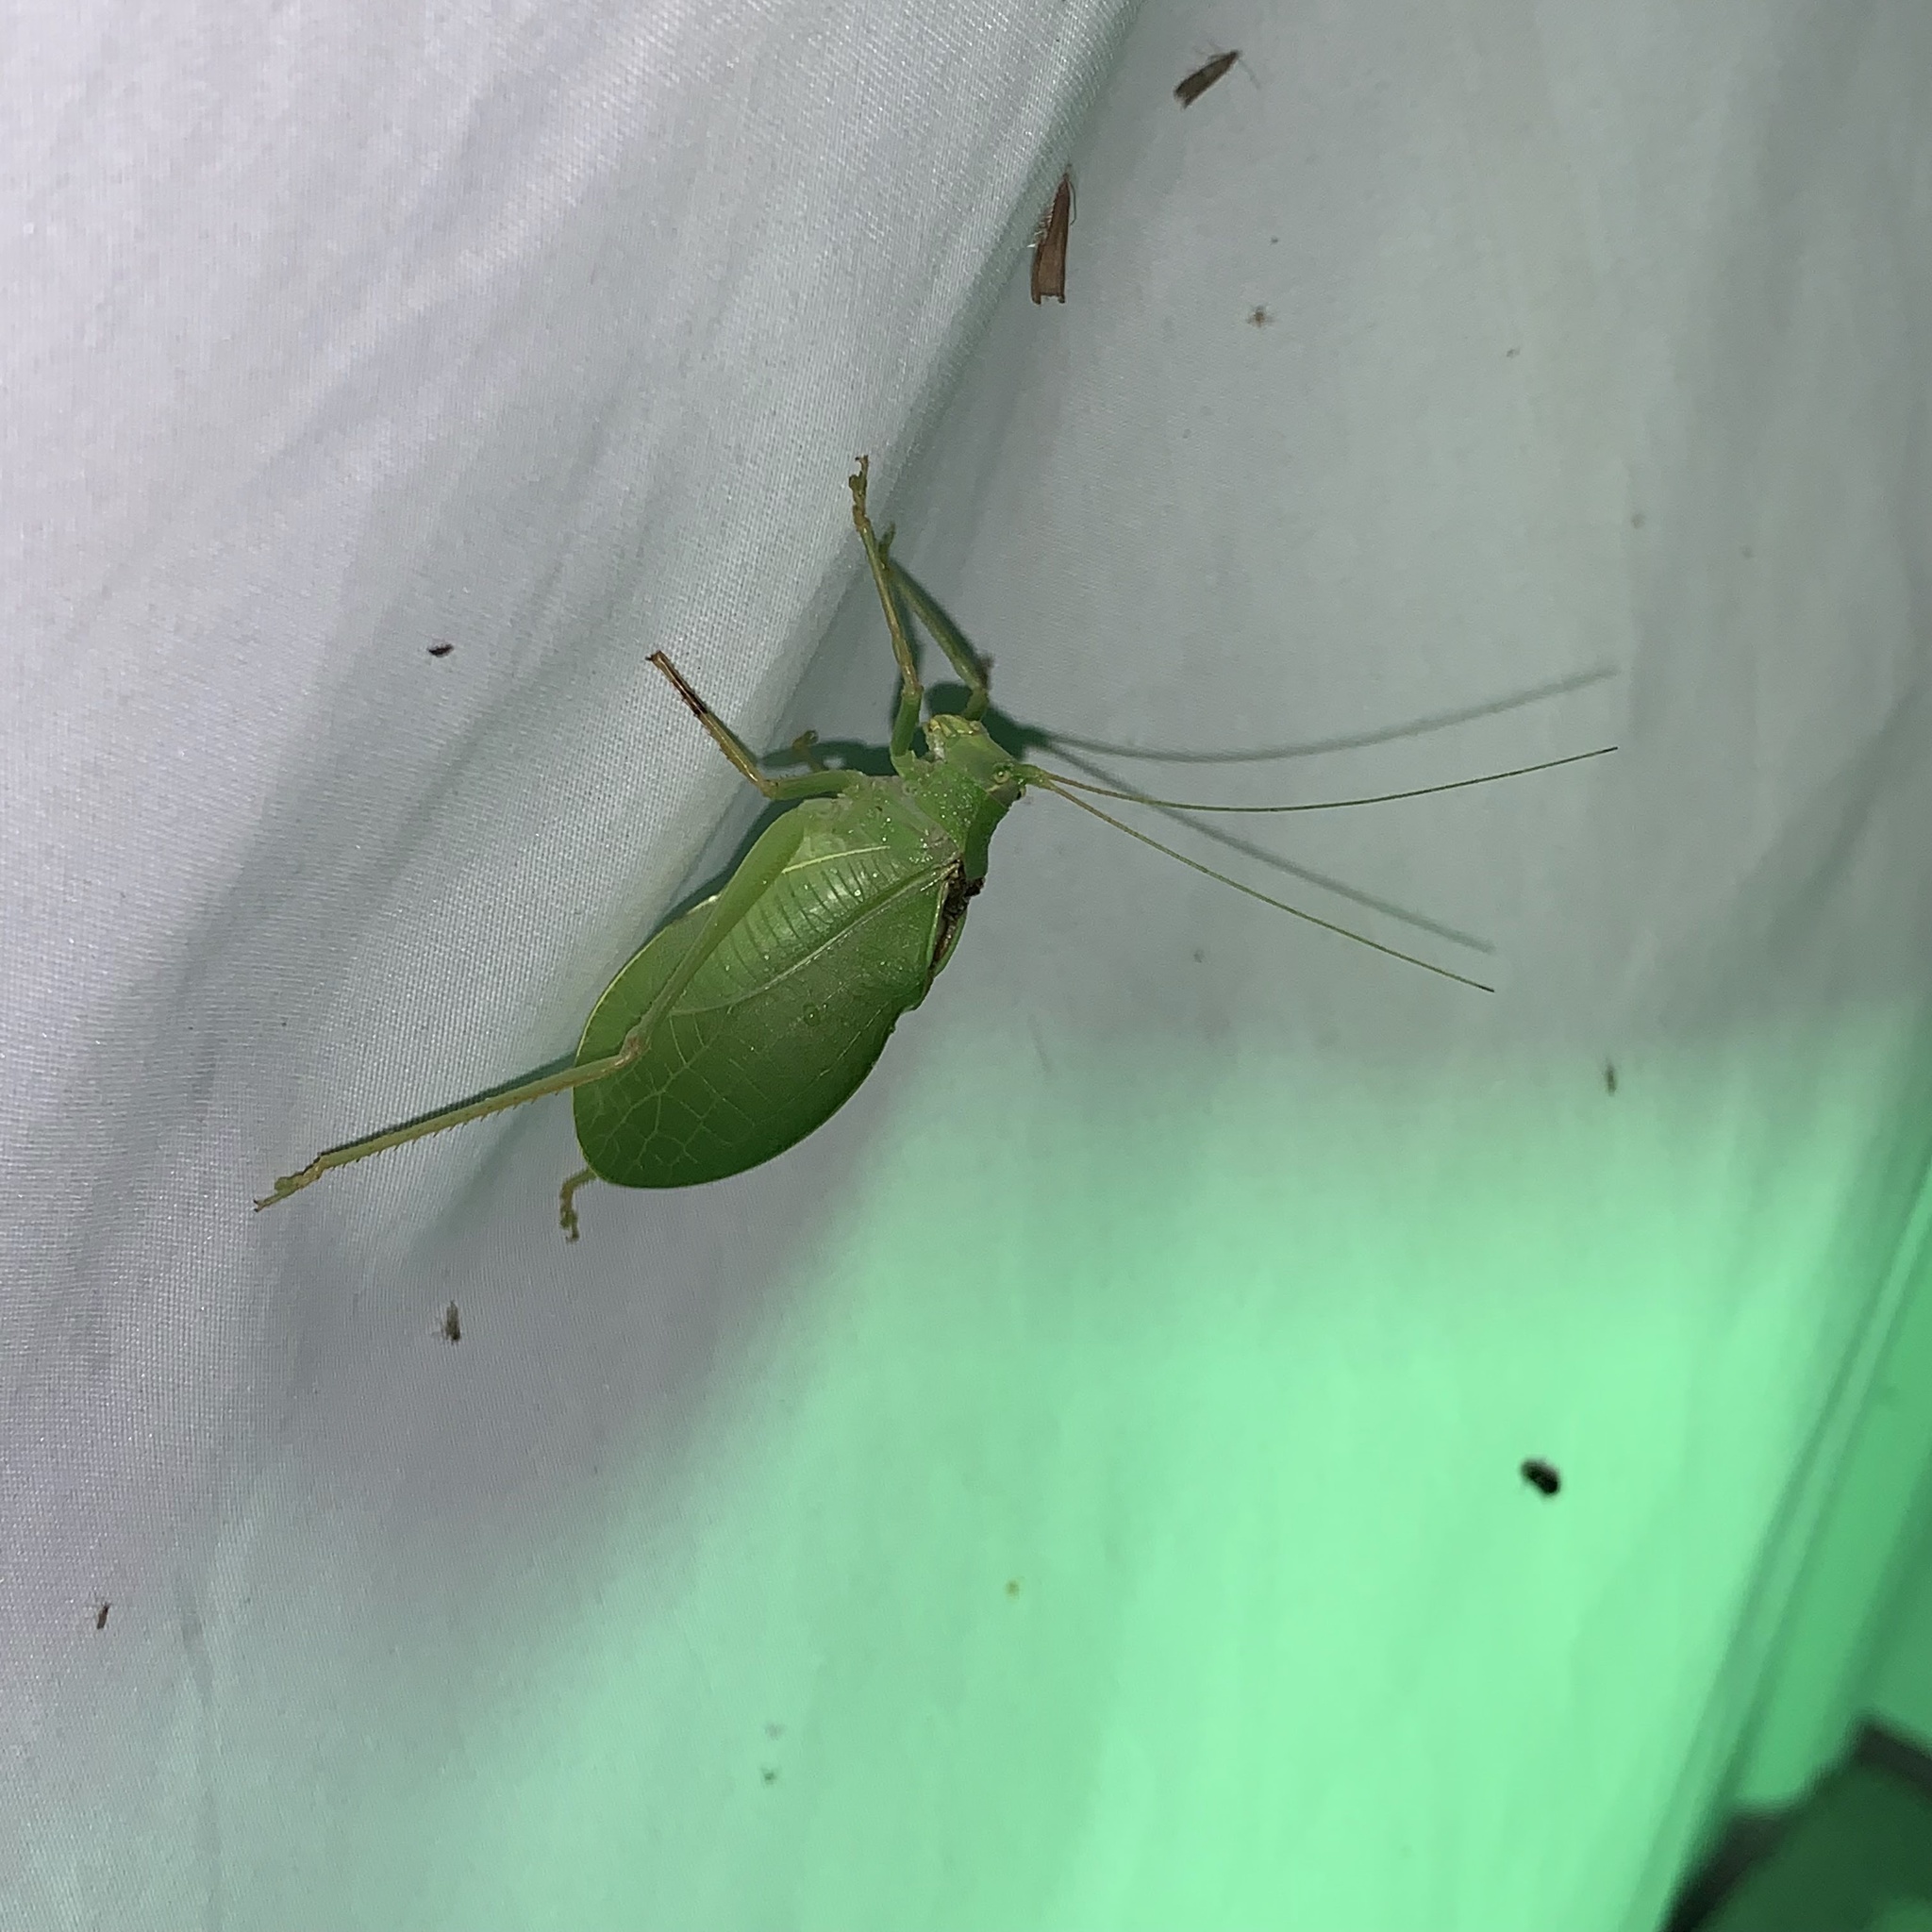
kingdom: Animalia
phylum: Arthropoda
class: Insecta
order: Orthoptera
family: Tettigoniidae
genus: Pterophylla
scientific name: Pterophylla camellifolia
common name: Common true katydid
